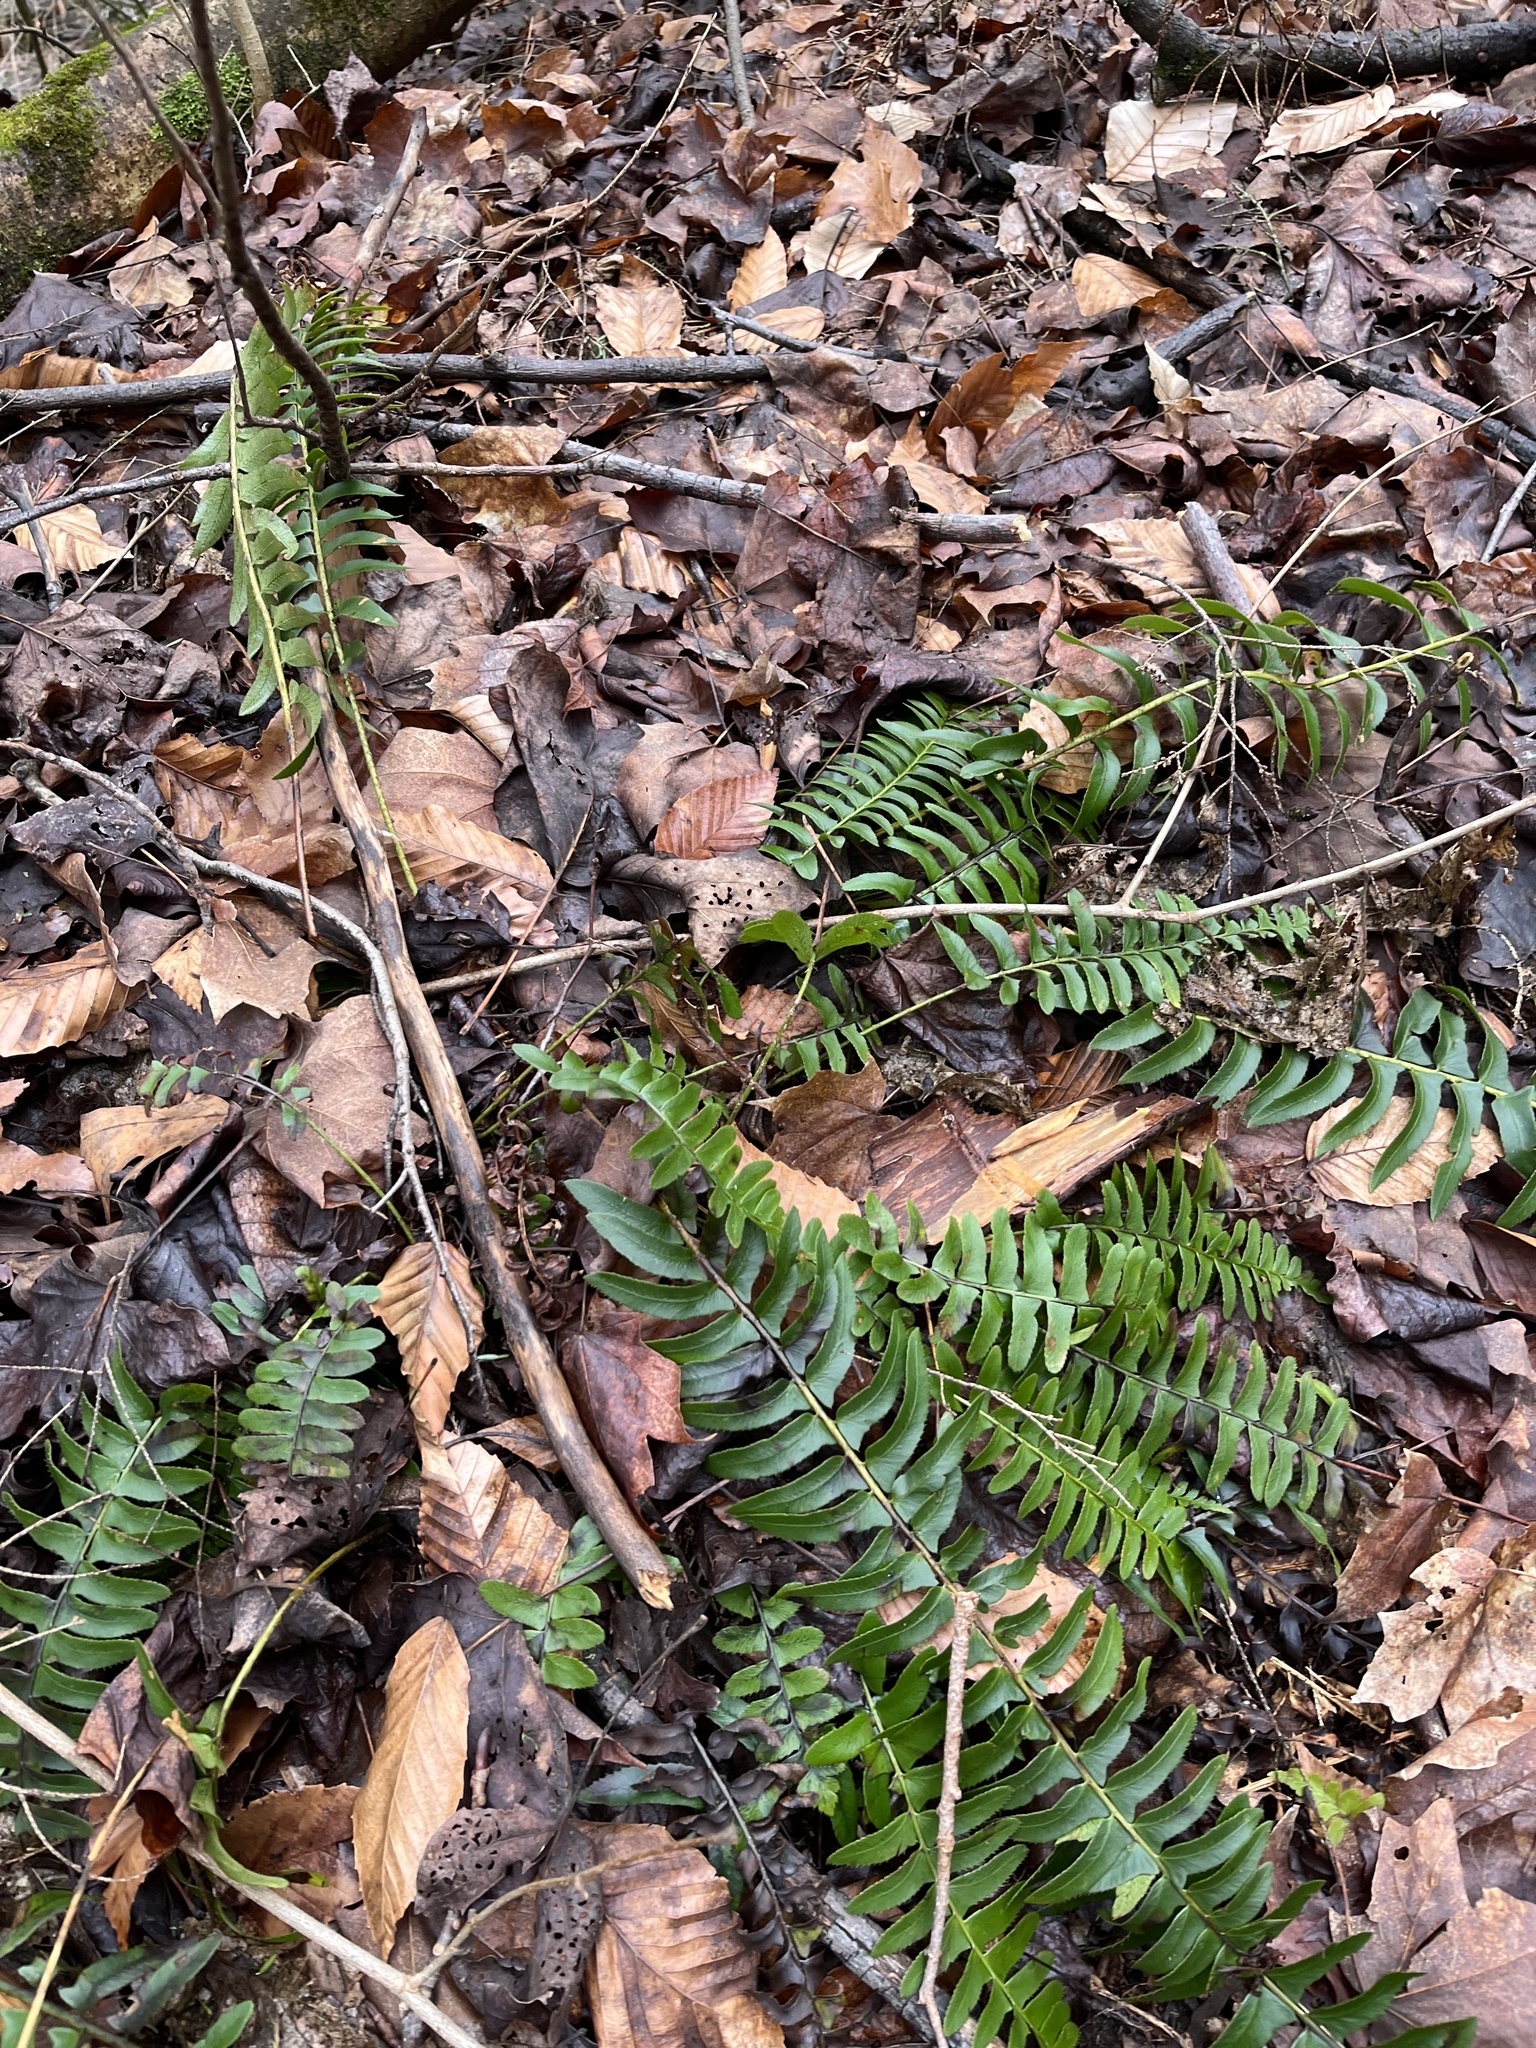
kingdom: Plantae
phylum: Tracheophyta
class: Polypodiopsida
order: Polypodiales
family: Dryopteridaceae
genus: Polystichum
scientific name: Polystichum acrostichoides
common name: Christmas fern
